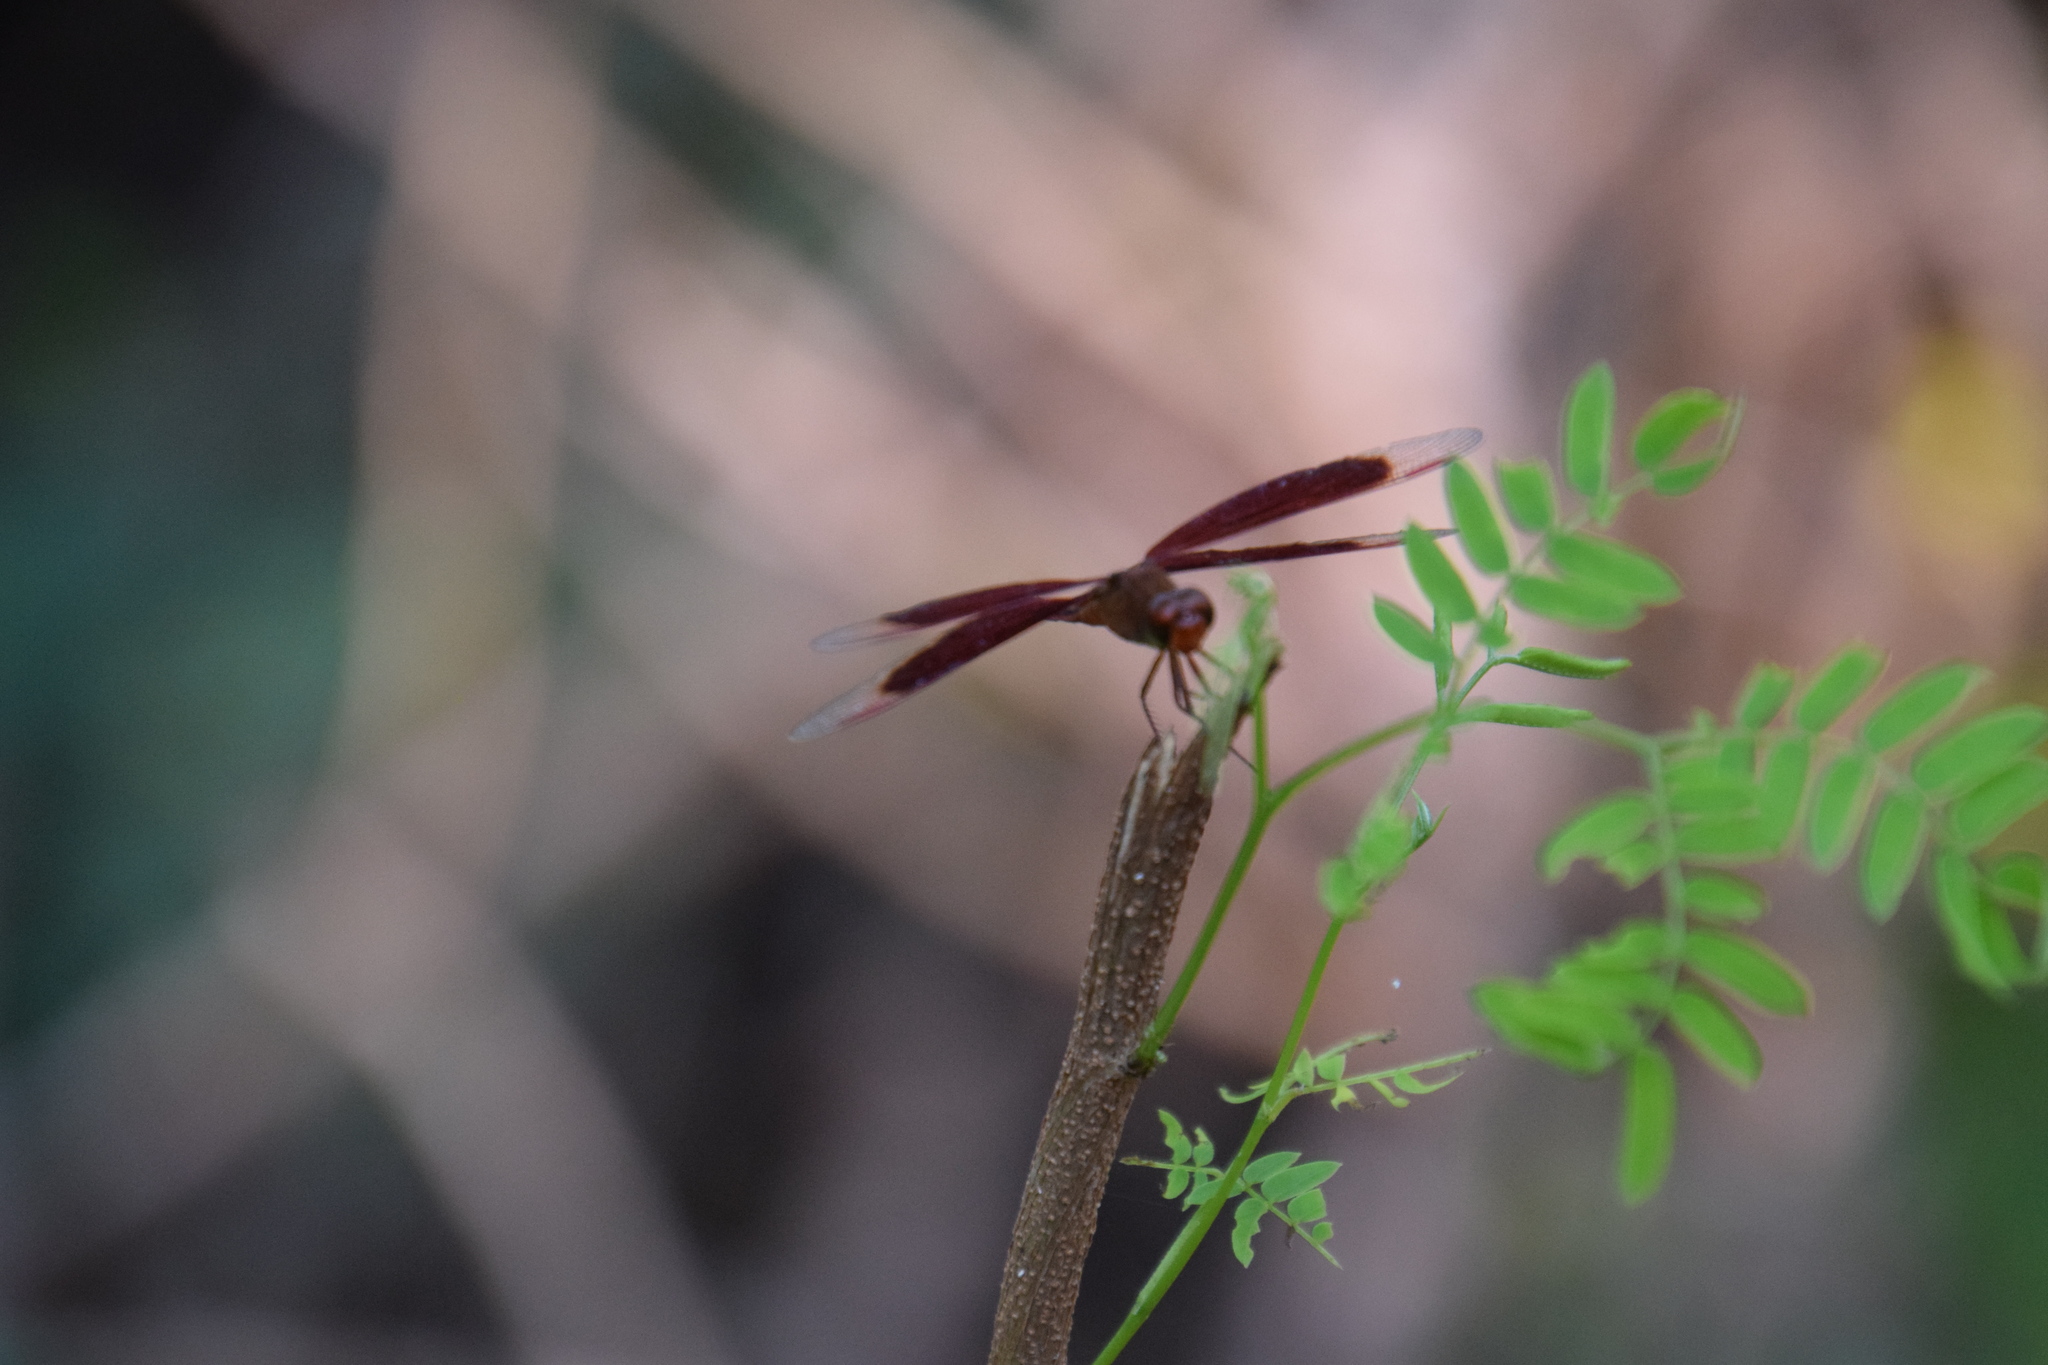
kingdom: Animalia
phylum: Arthropoda
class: Insecta
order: Odonata
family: Libellulidae
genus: Neurothemis
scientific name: Neurothemis stigmatizans
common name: Painted grasshawk
